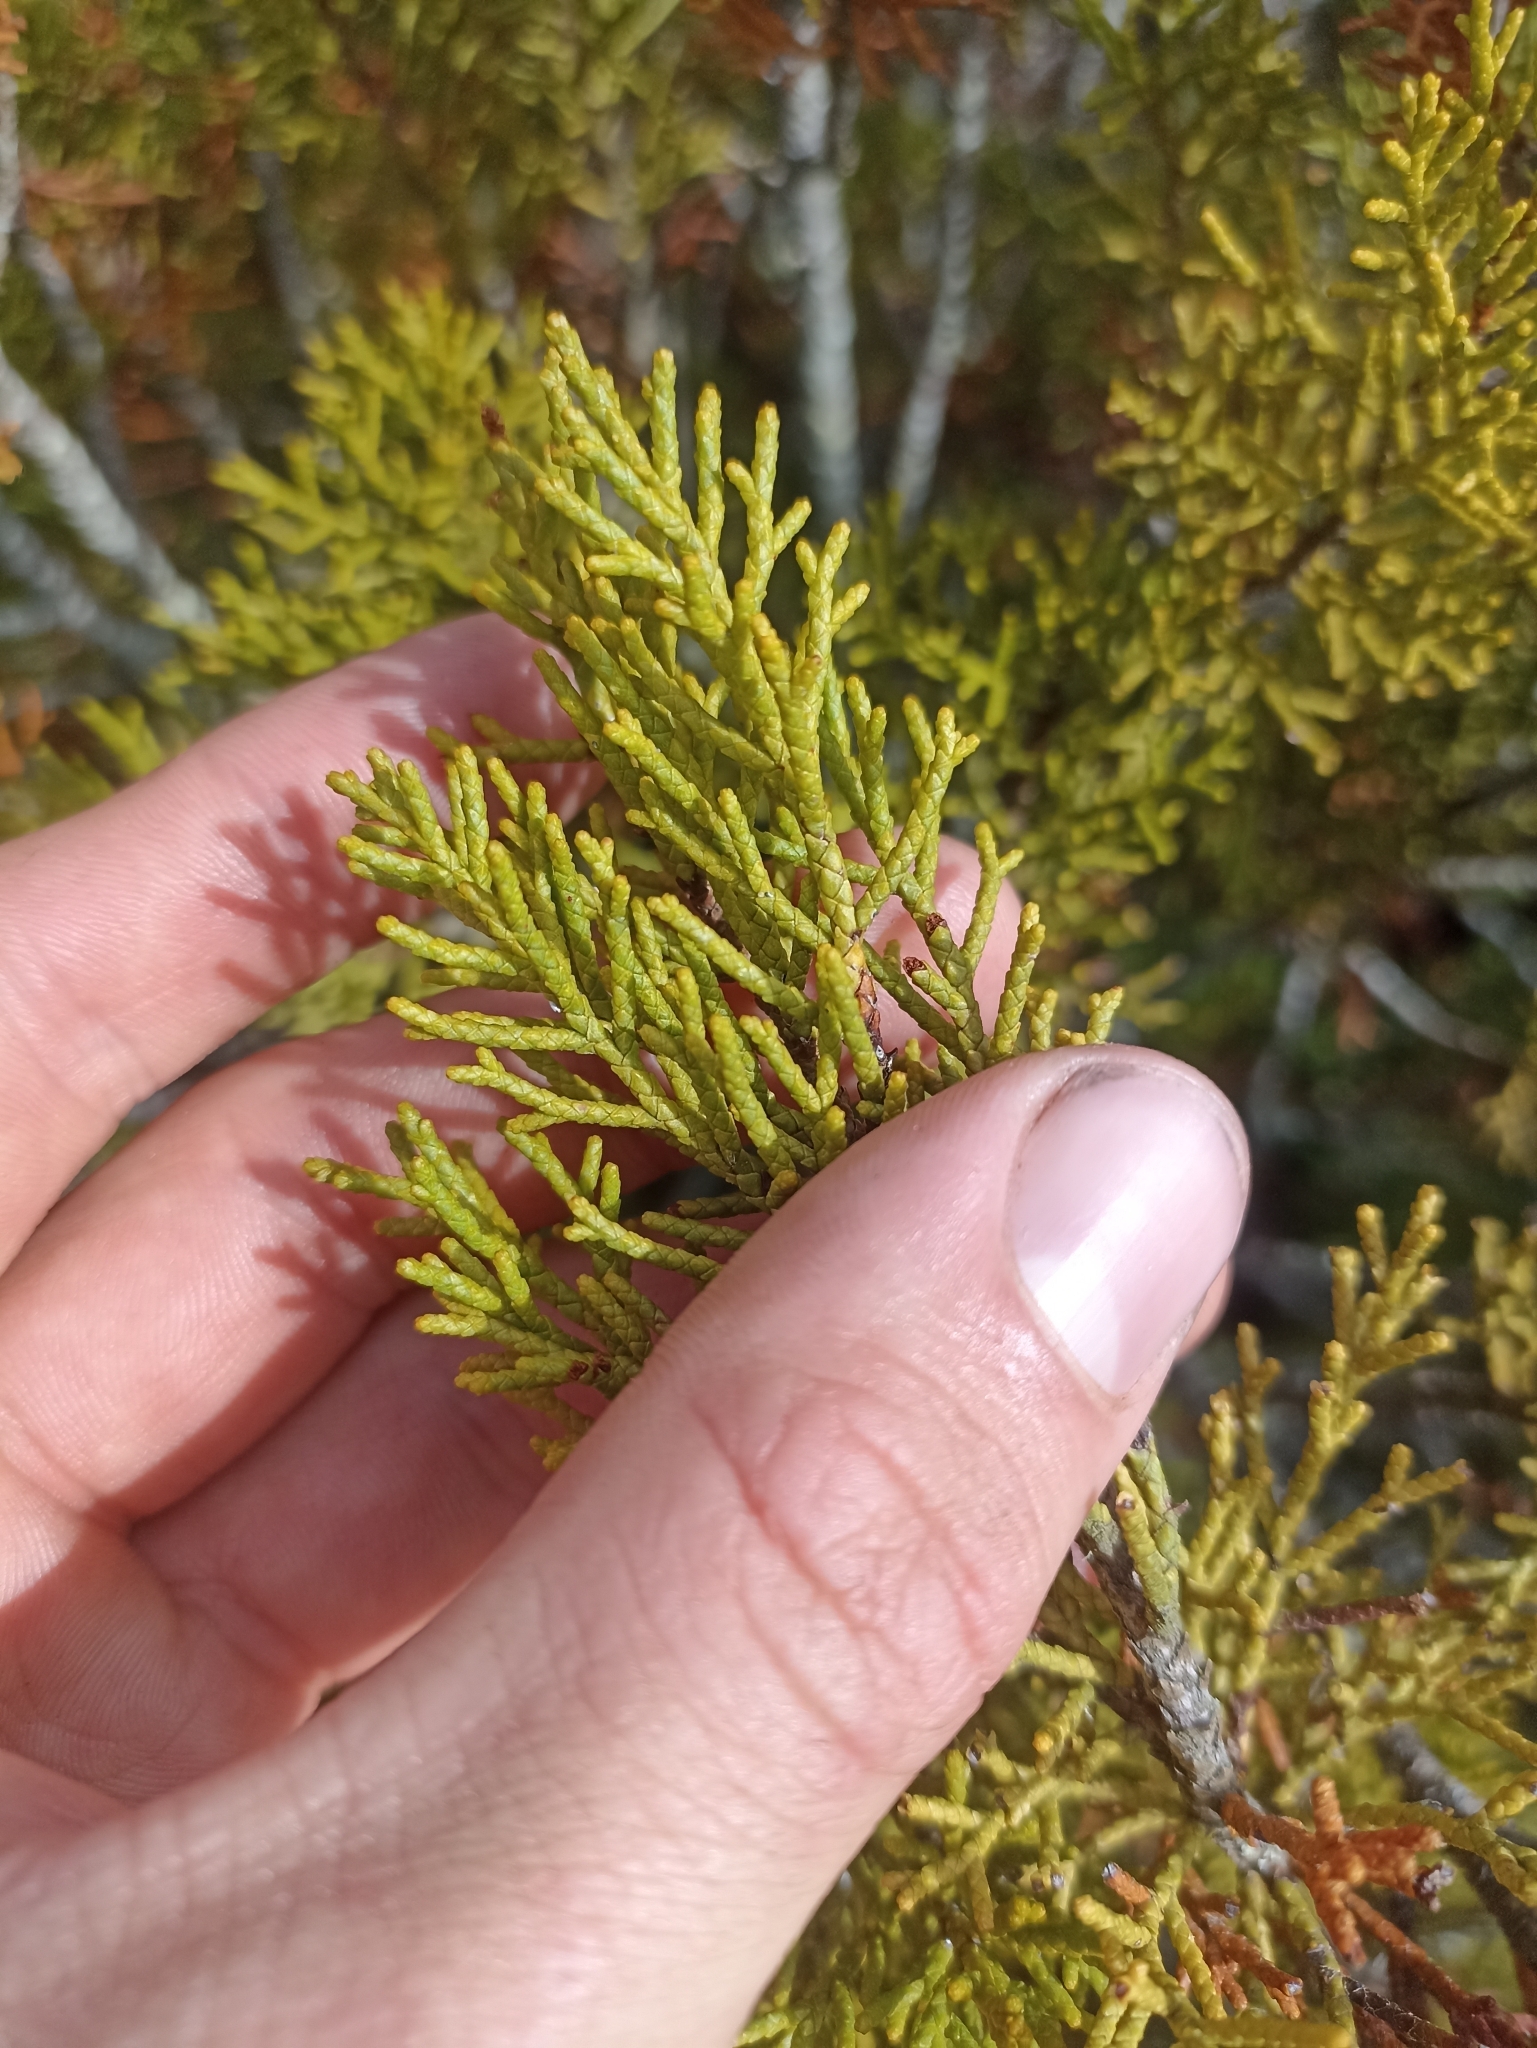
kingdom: Plantae
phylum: Tracheophyta
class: Pinopsida
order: Pinales
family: Podocarpaceae
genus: Halocarpus
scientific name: Halocarpus bidwillii
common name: Bog pine
